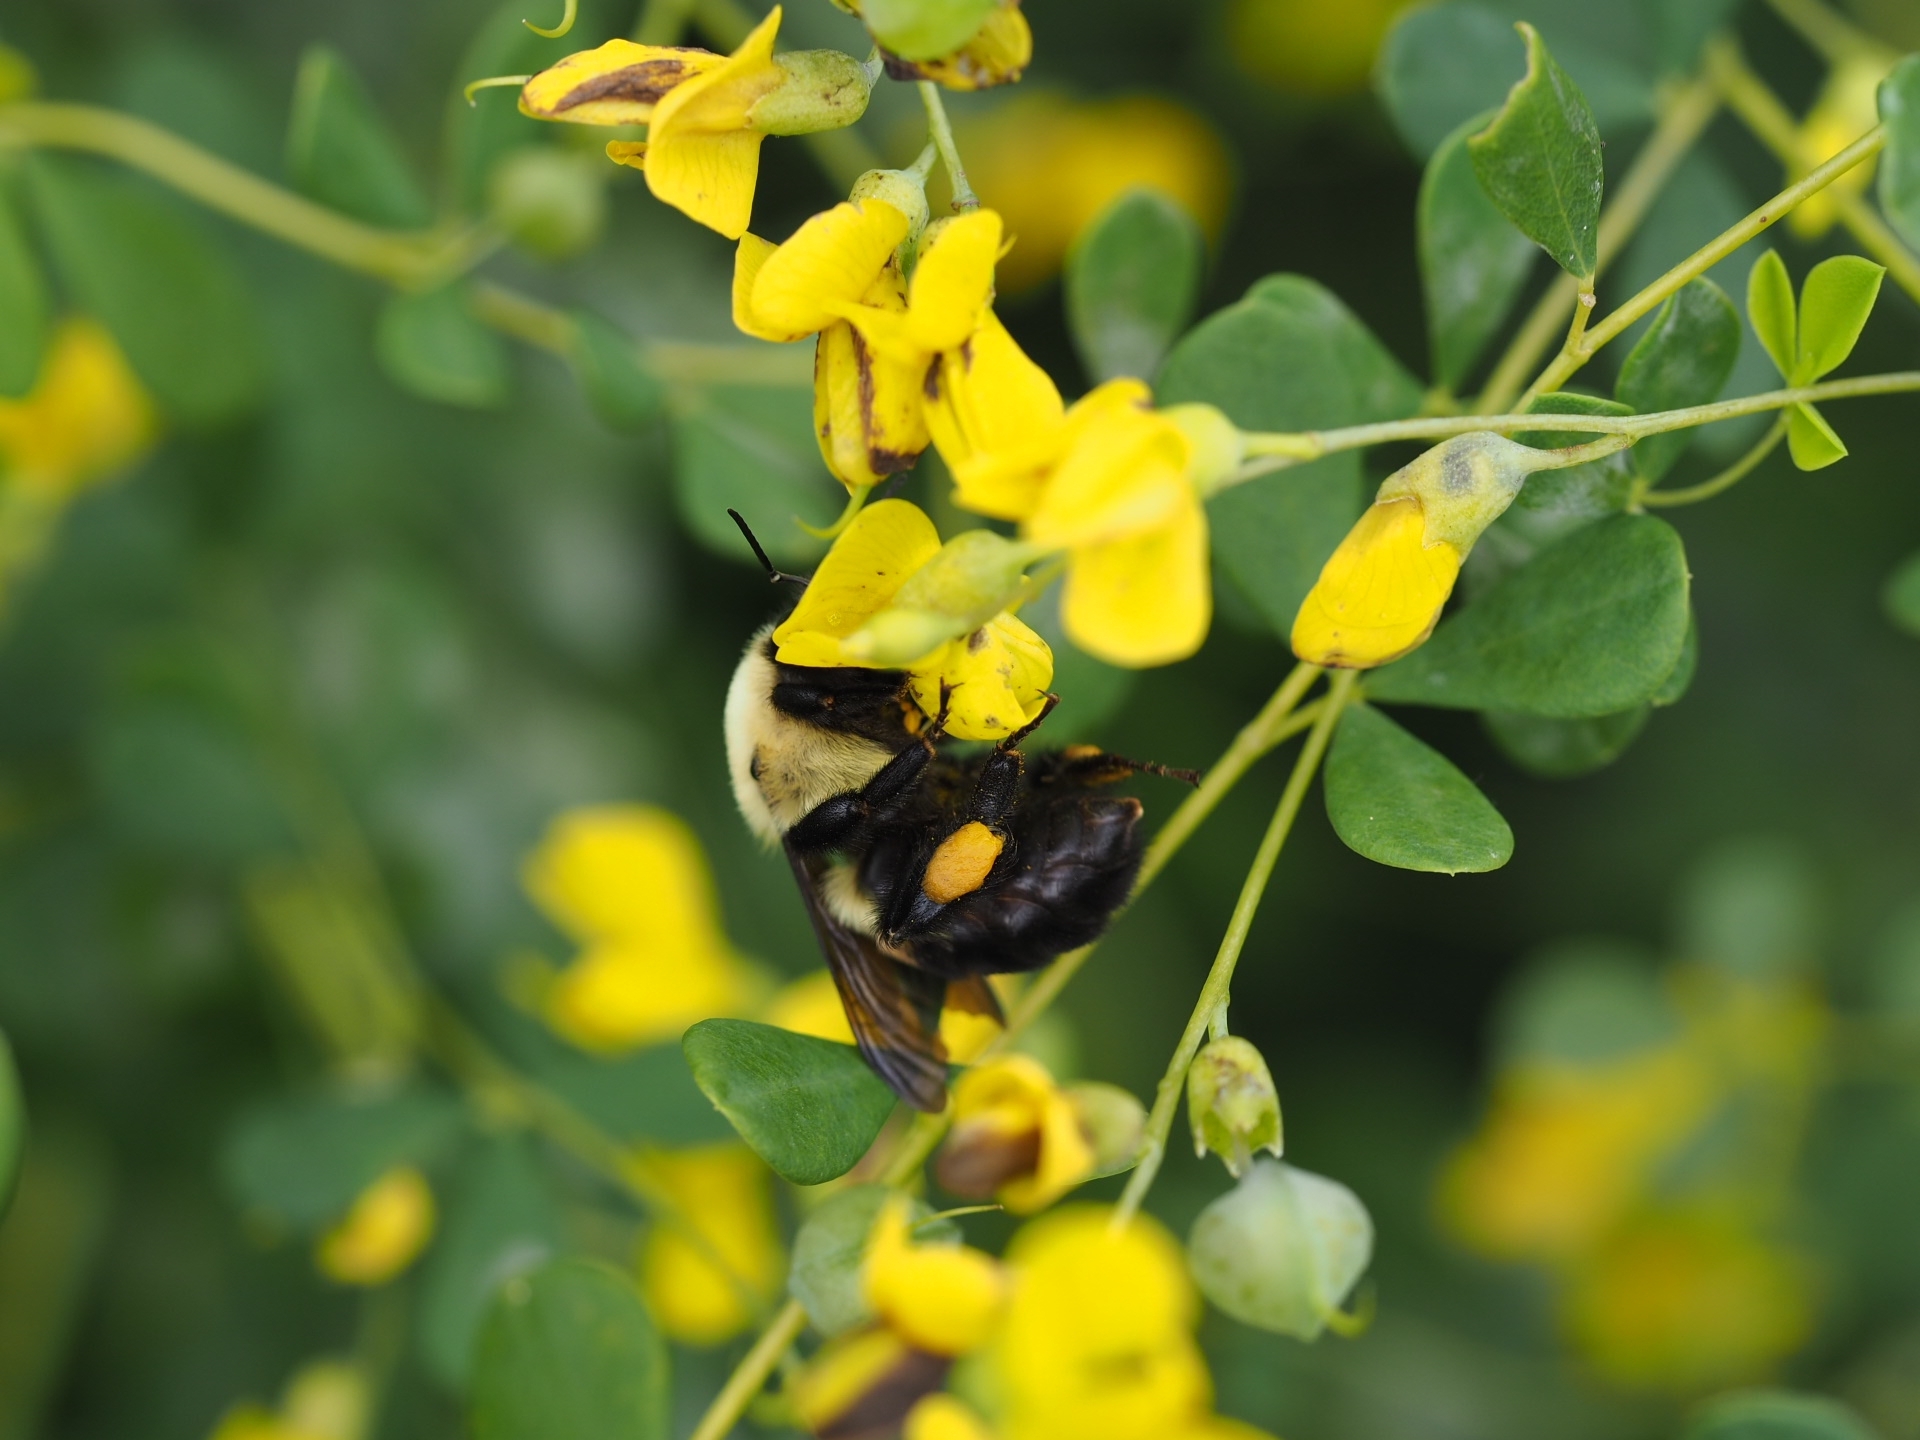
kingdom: Animalia
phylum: Arthropoda
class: Insecta
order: Hymenoptera
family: Apidae
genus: Bombus
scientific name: Bombus griseocollis
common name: Brown-belted bumble bee
